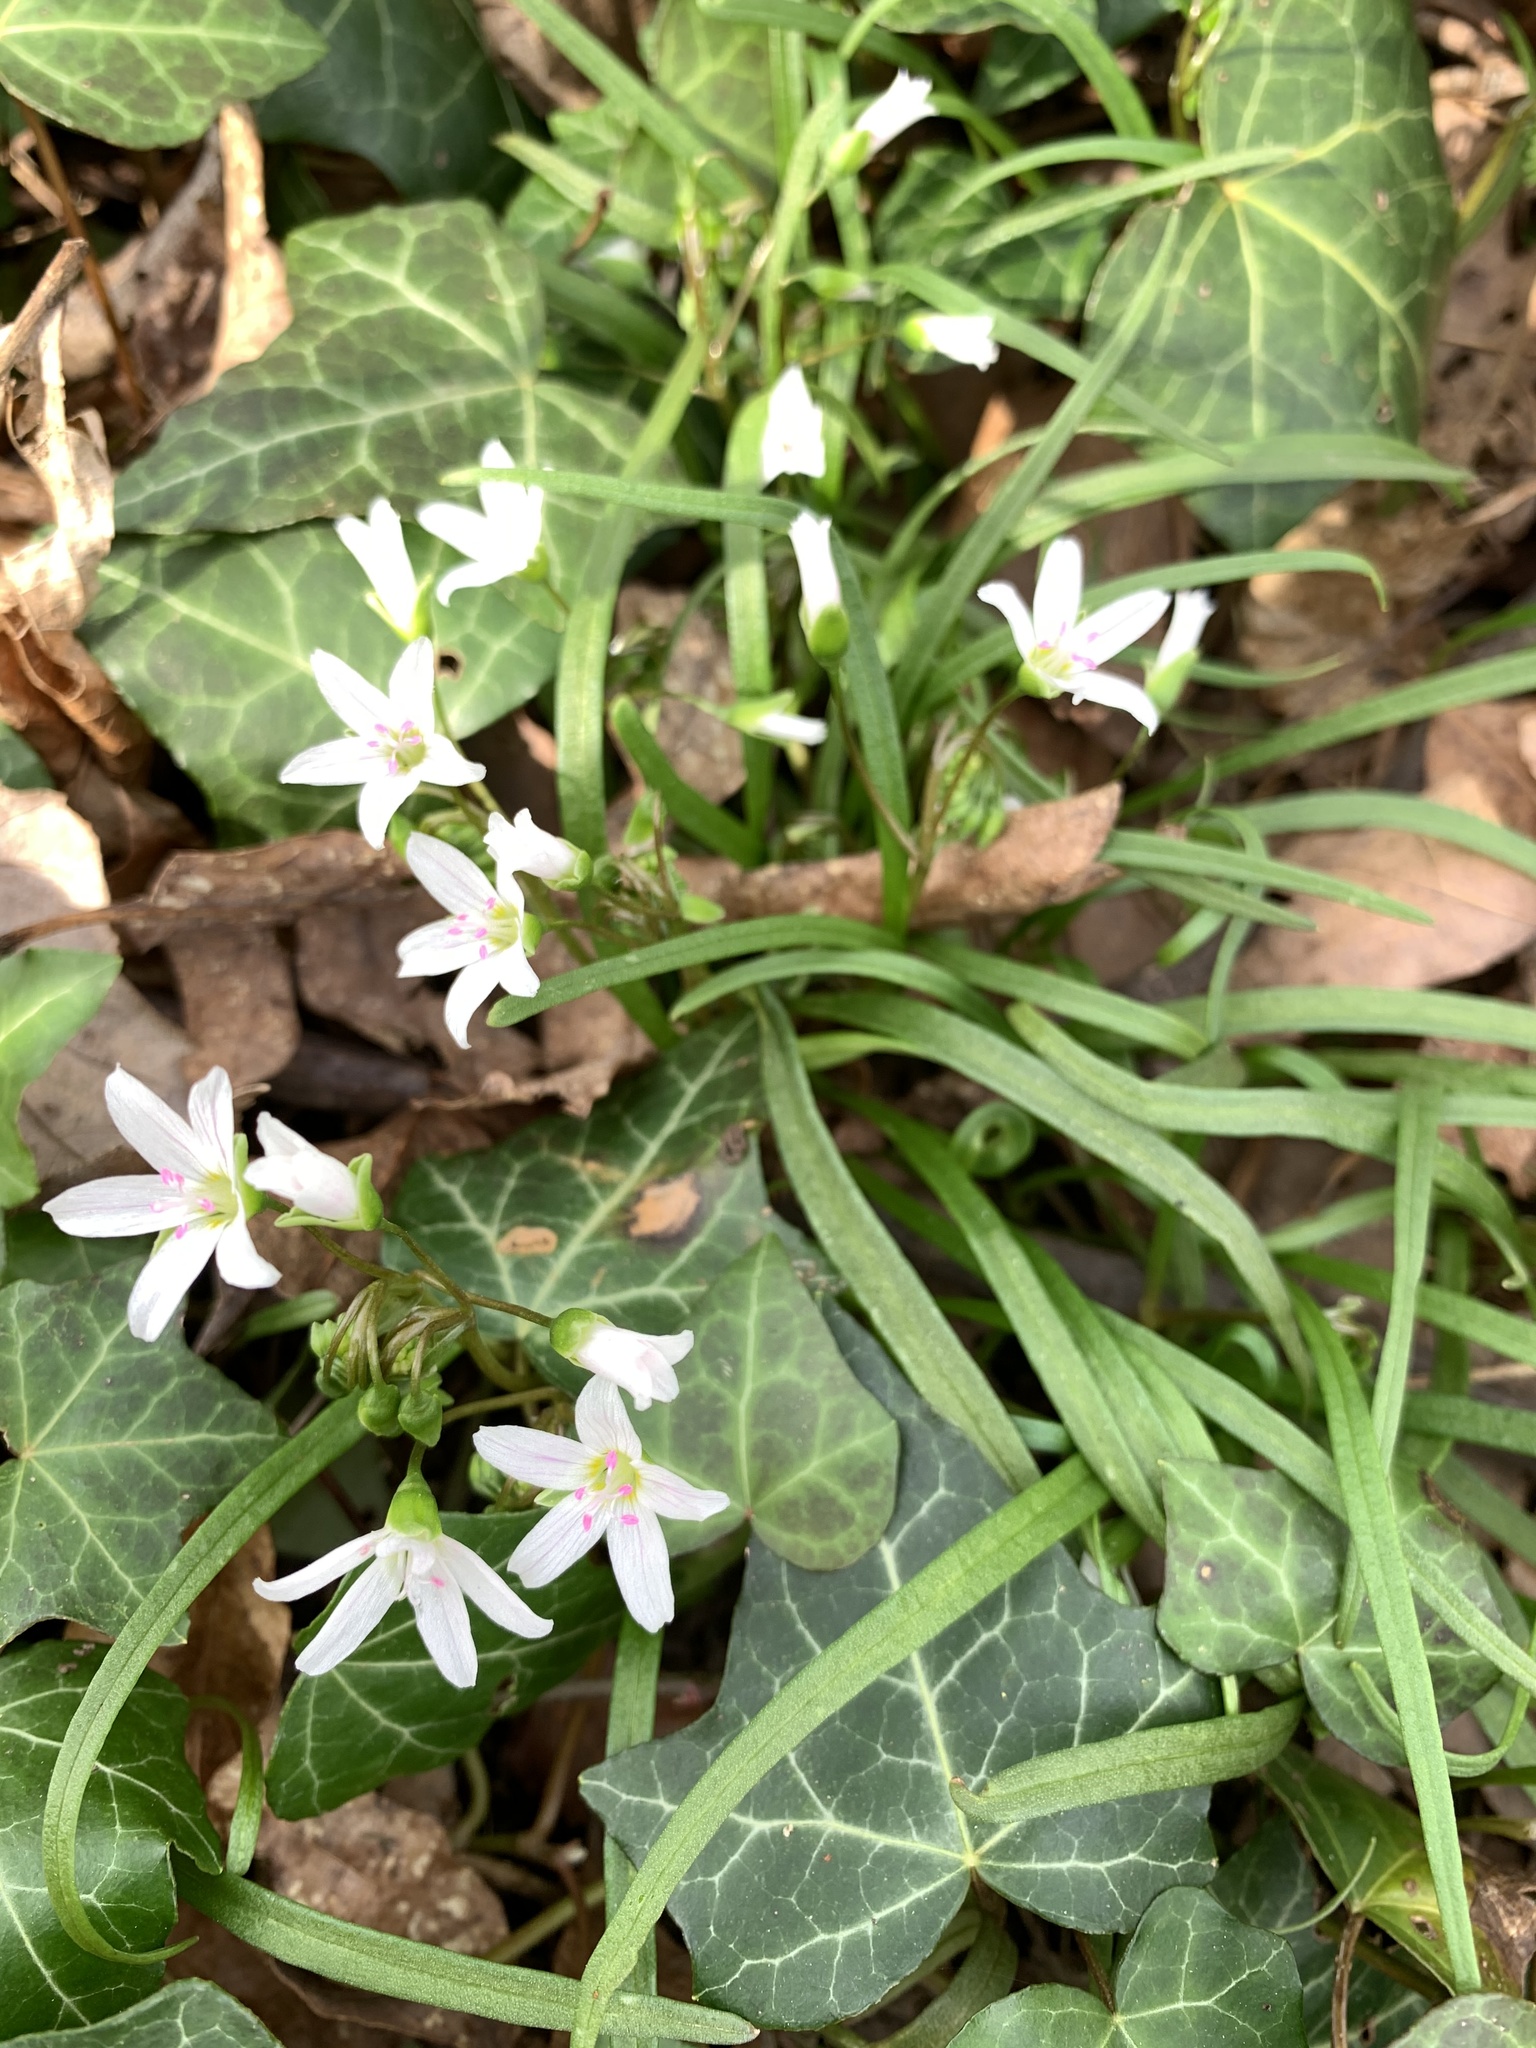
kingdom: Plantae
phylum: Tracheophyta
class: Magnoliopsida
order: Caryophyllales
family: Montiaceae
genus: Claytonia
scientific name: Claytonia virginica
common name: Virginia springbeauty
